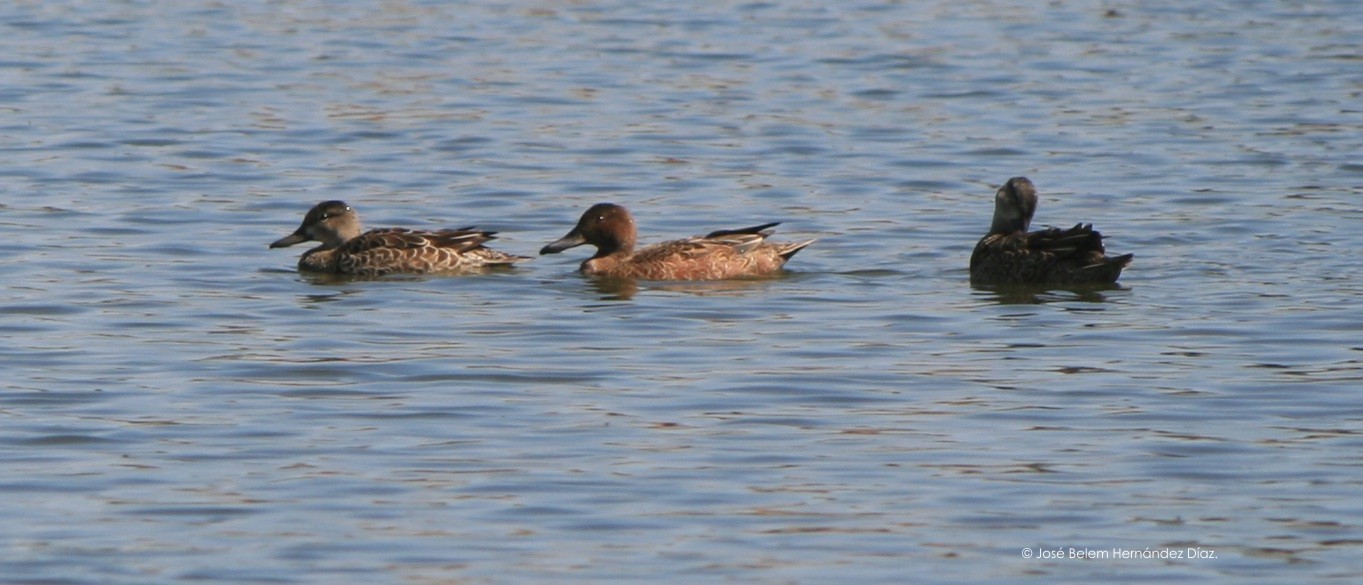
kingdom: Animalia
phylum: Chordata
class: Aves
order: Anseriformes
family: Anatidae
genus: Spatula
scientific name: Spatula cyanoptera
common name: Cinnamon teal
